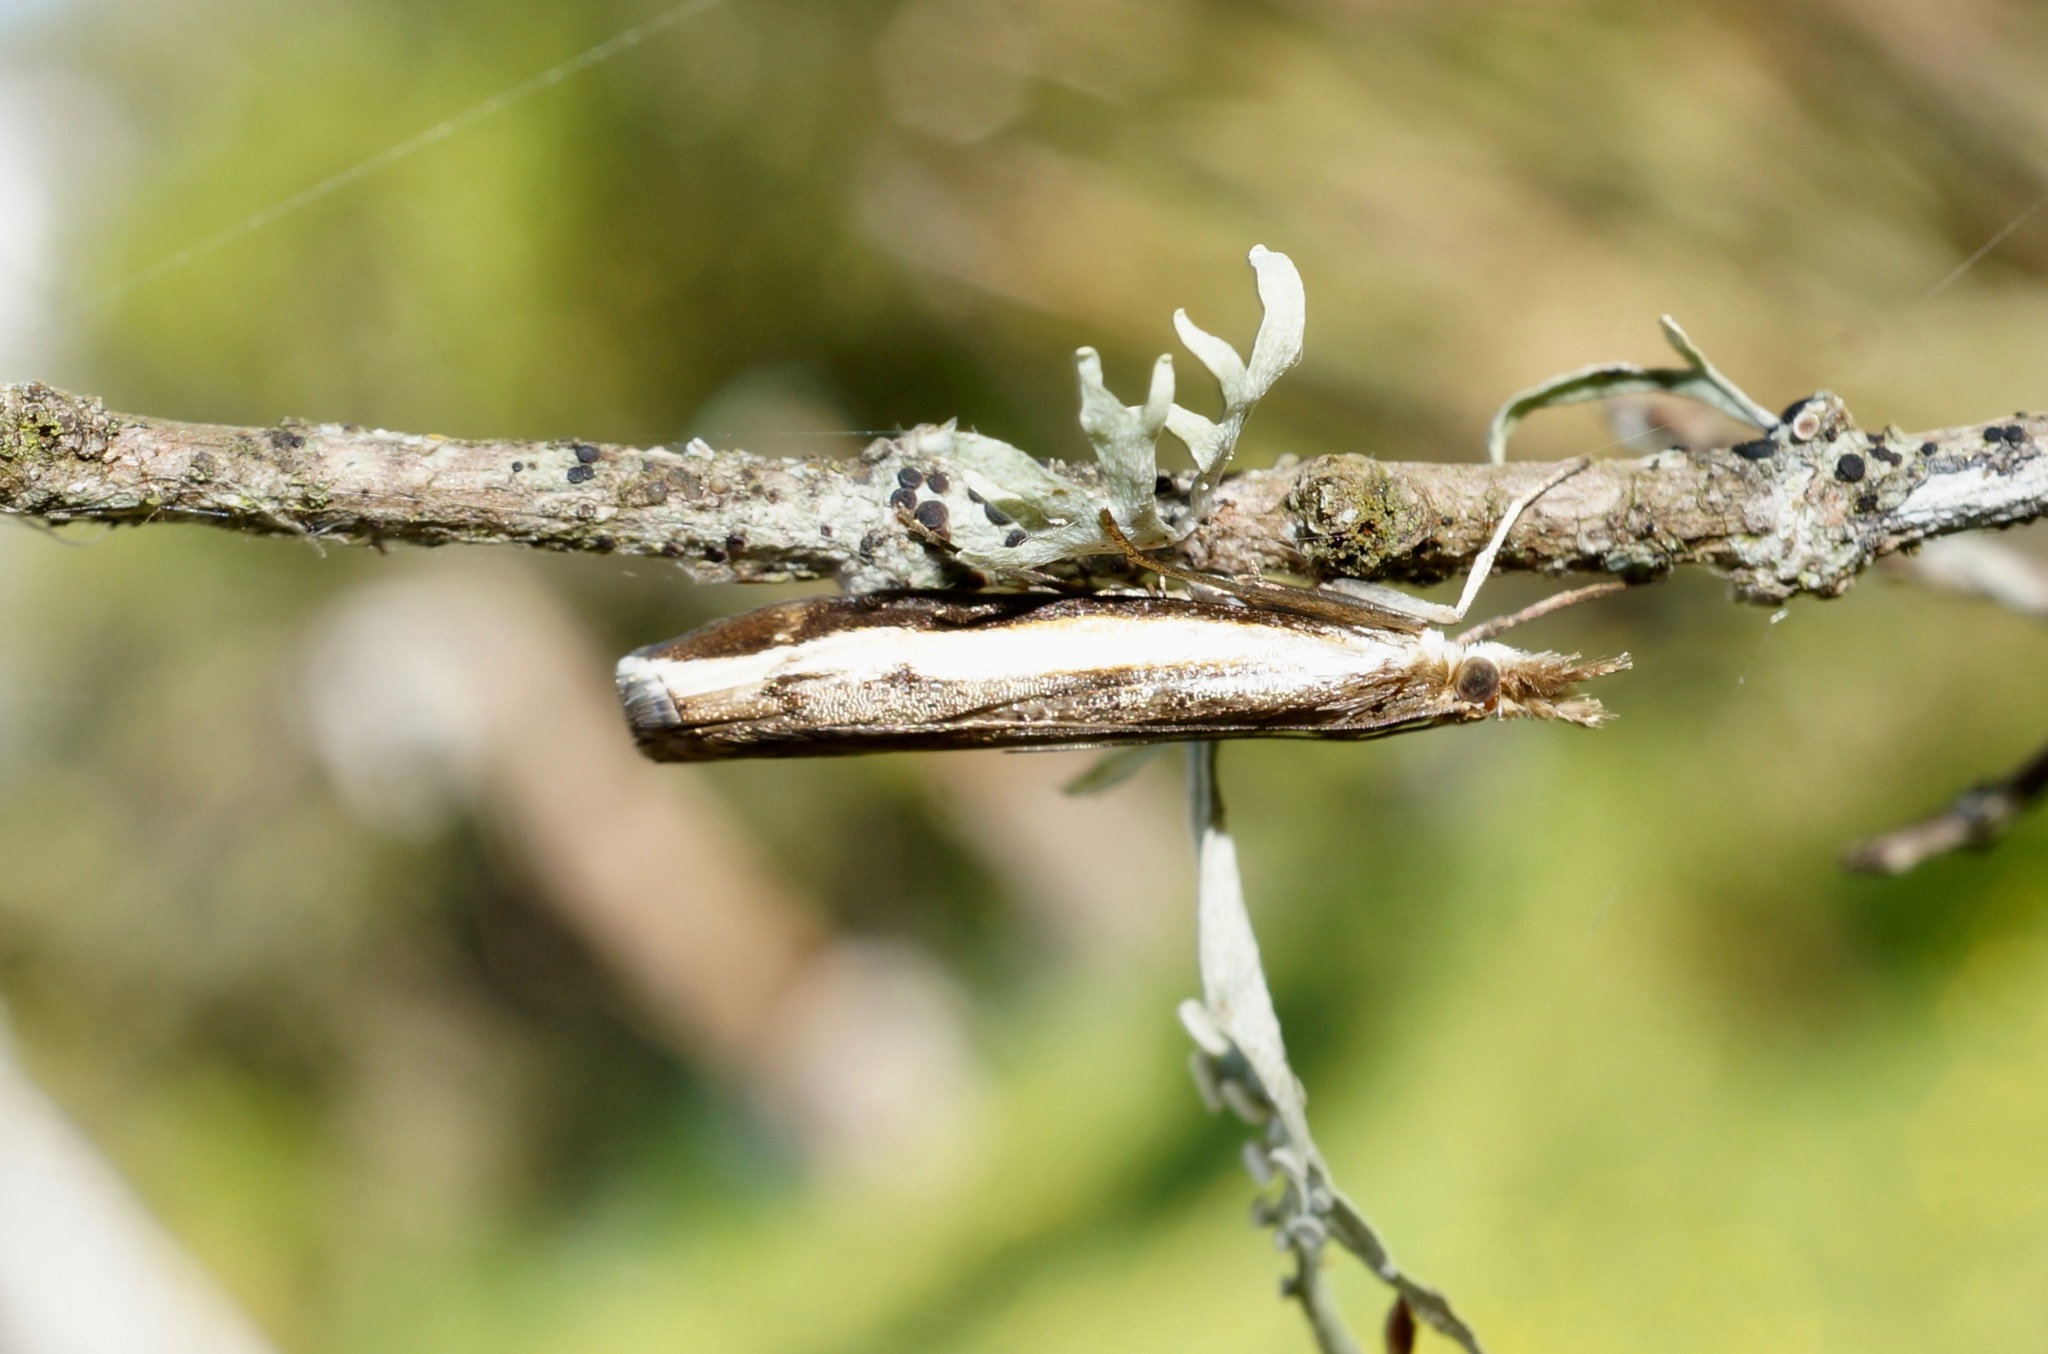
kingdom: Animalia
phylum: Arthropoda
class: Insecta
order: Lepidoptera
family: Crambidae
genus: Orocrambus
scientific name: Orocrambus flexuosellus
